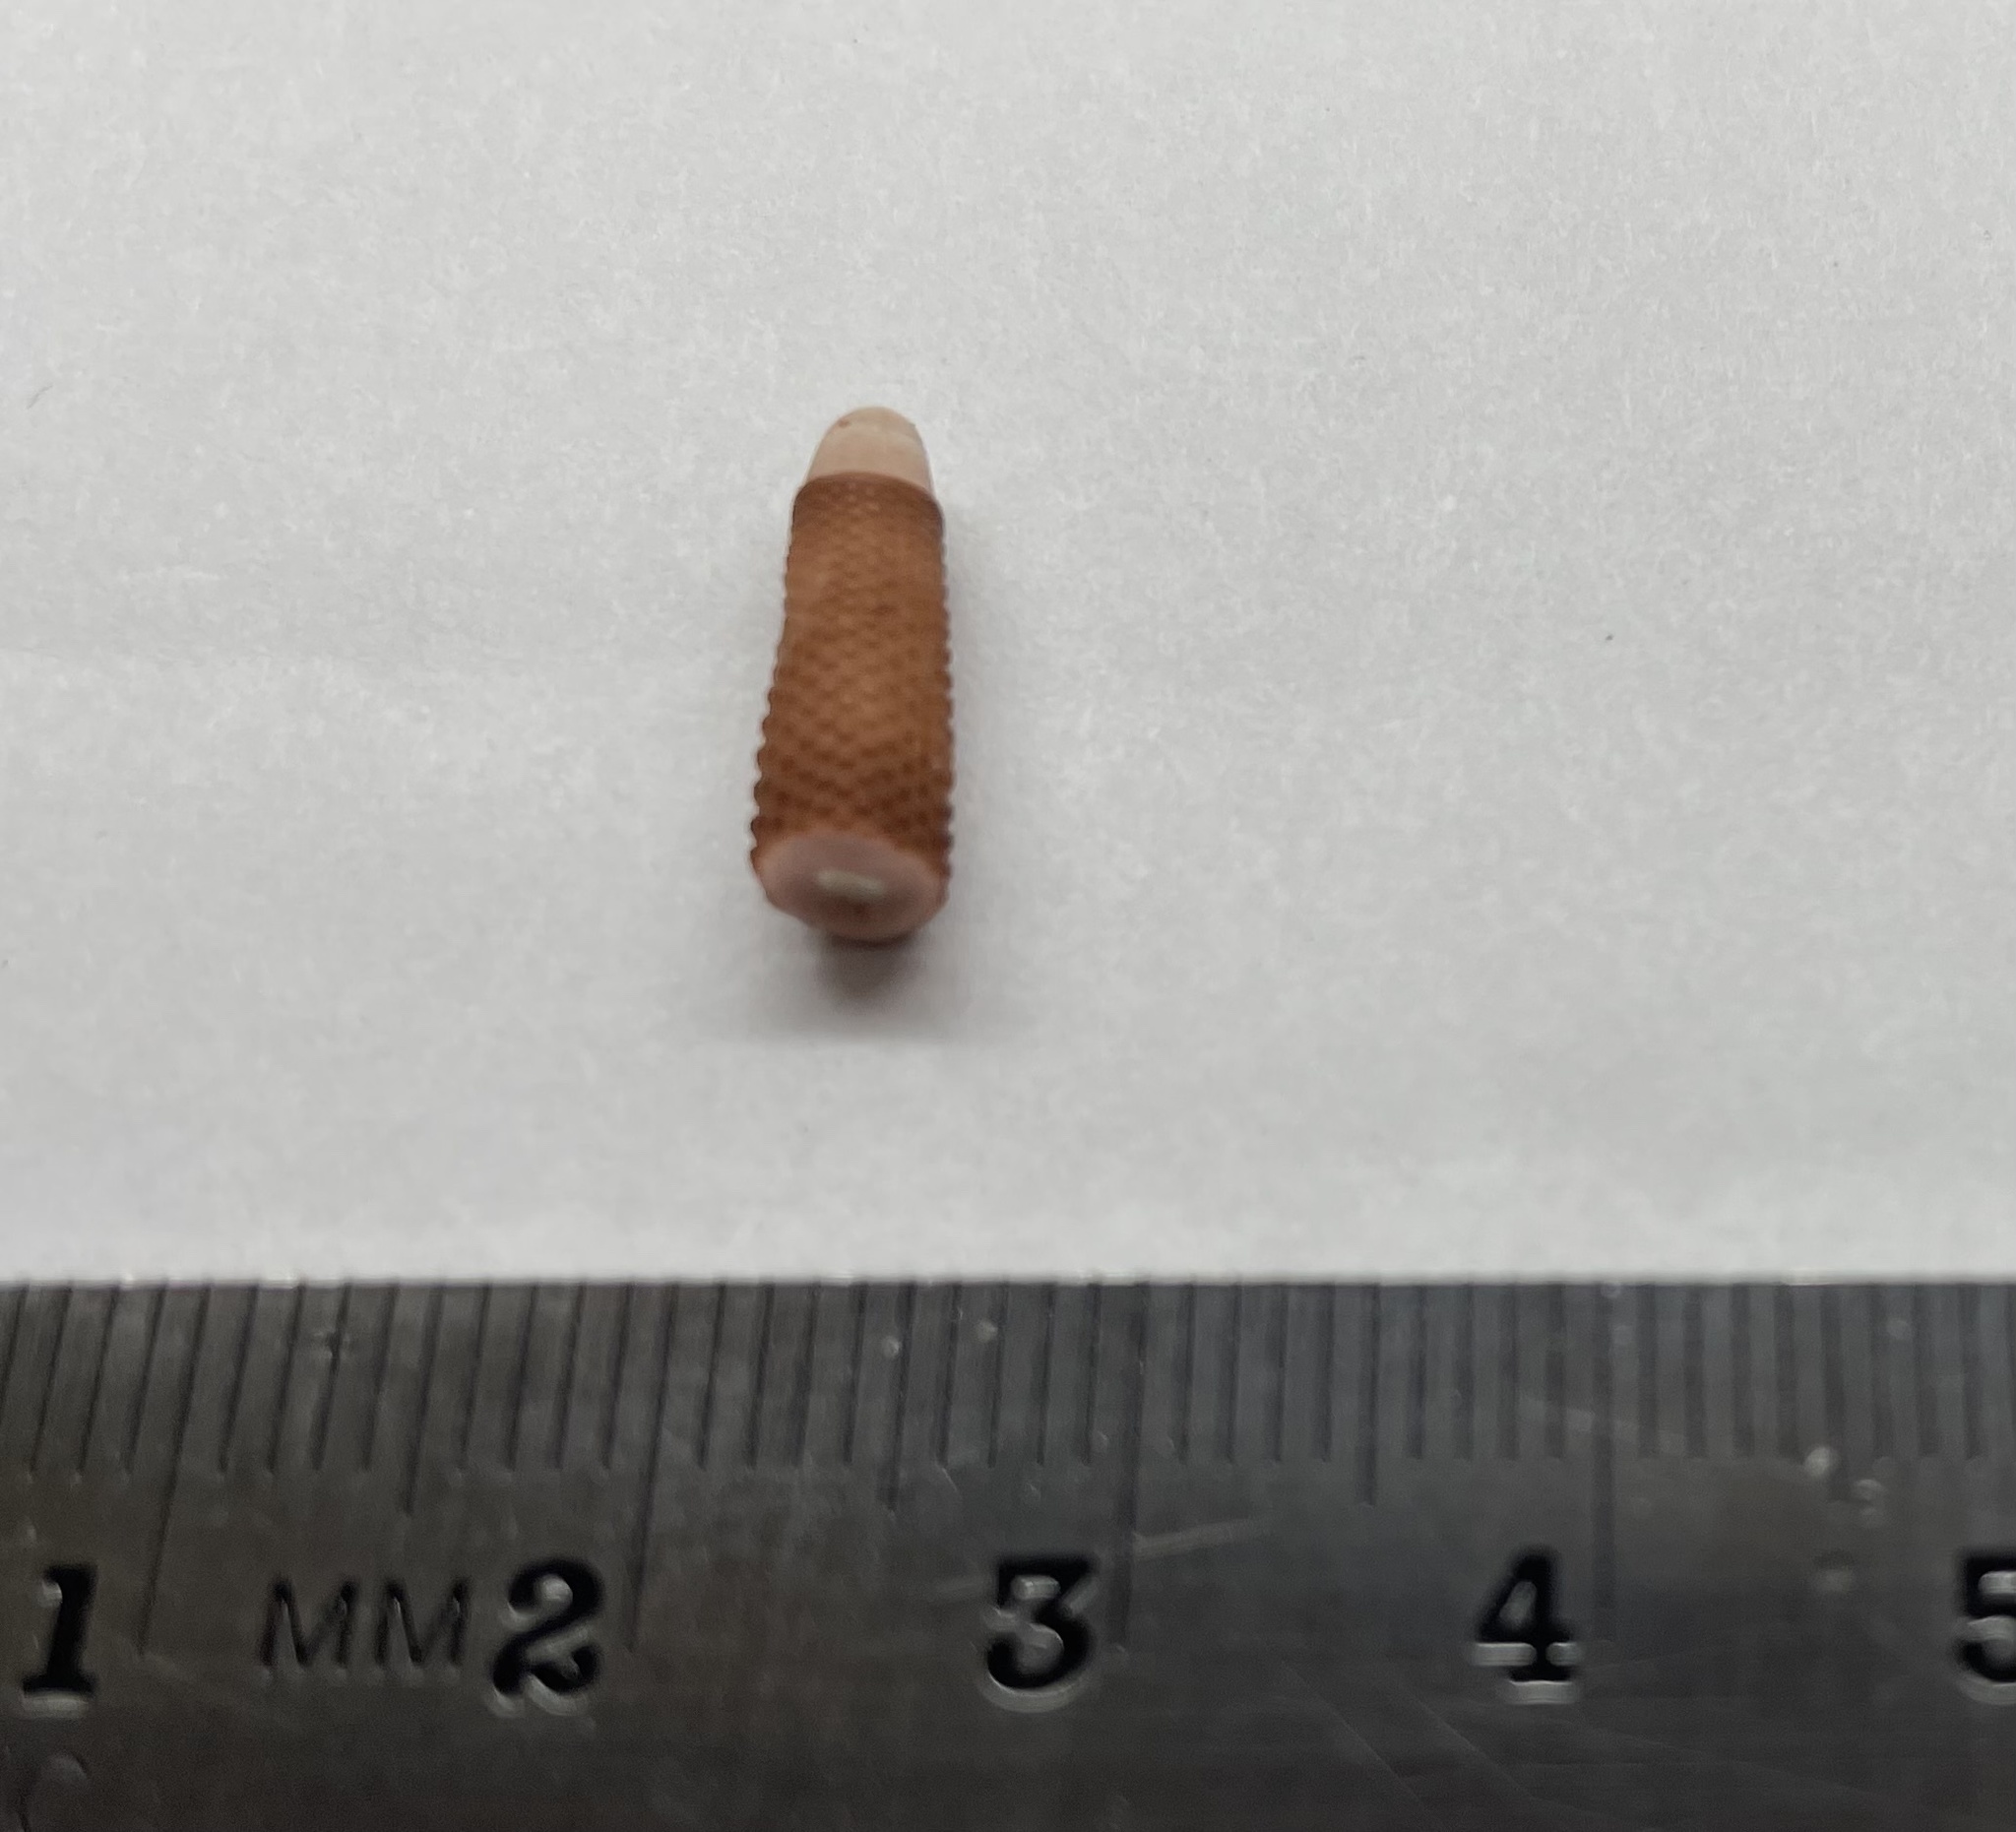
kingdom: Animalia
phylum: Echinodermata
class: Echinoidea
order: Cidaroida
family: Cidaridae
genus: Eucidaris
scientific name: Eucidaris tribuloides
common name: Slate pencil urchin
